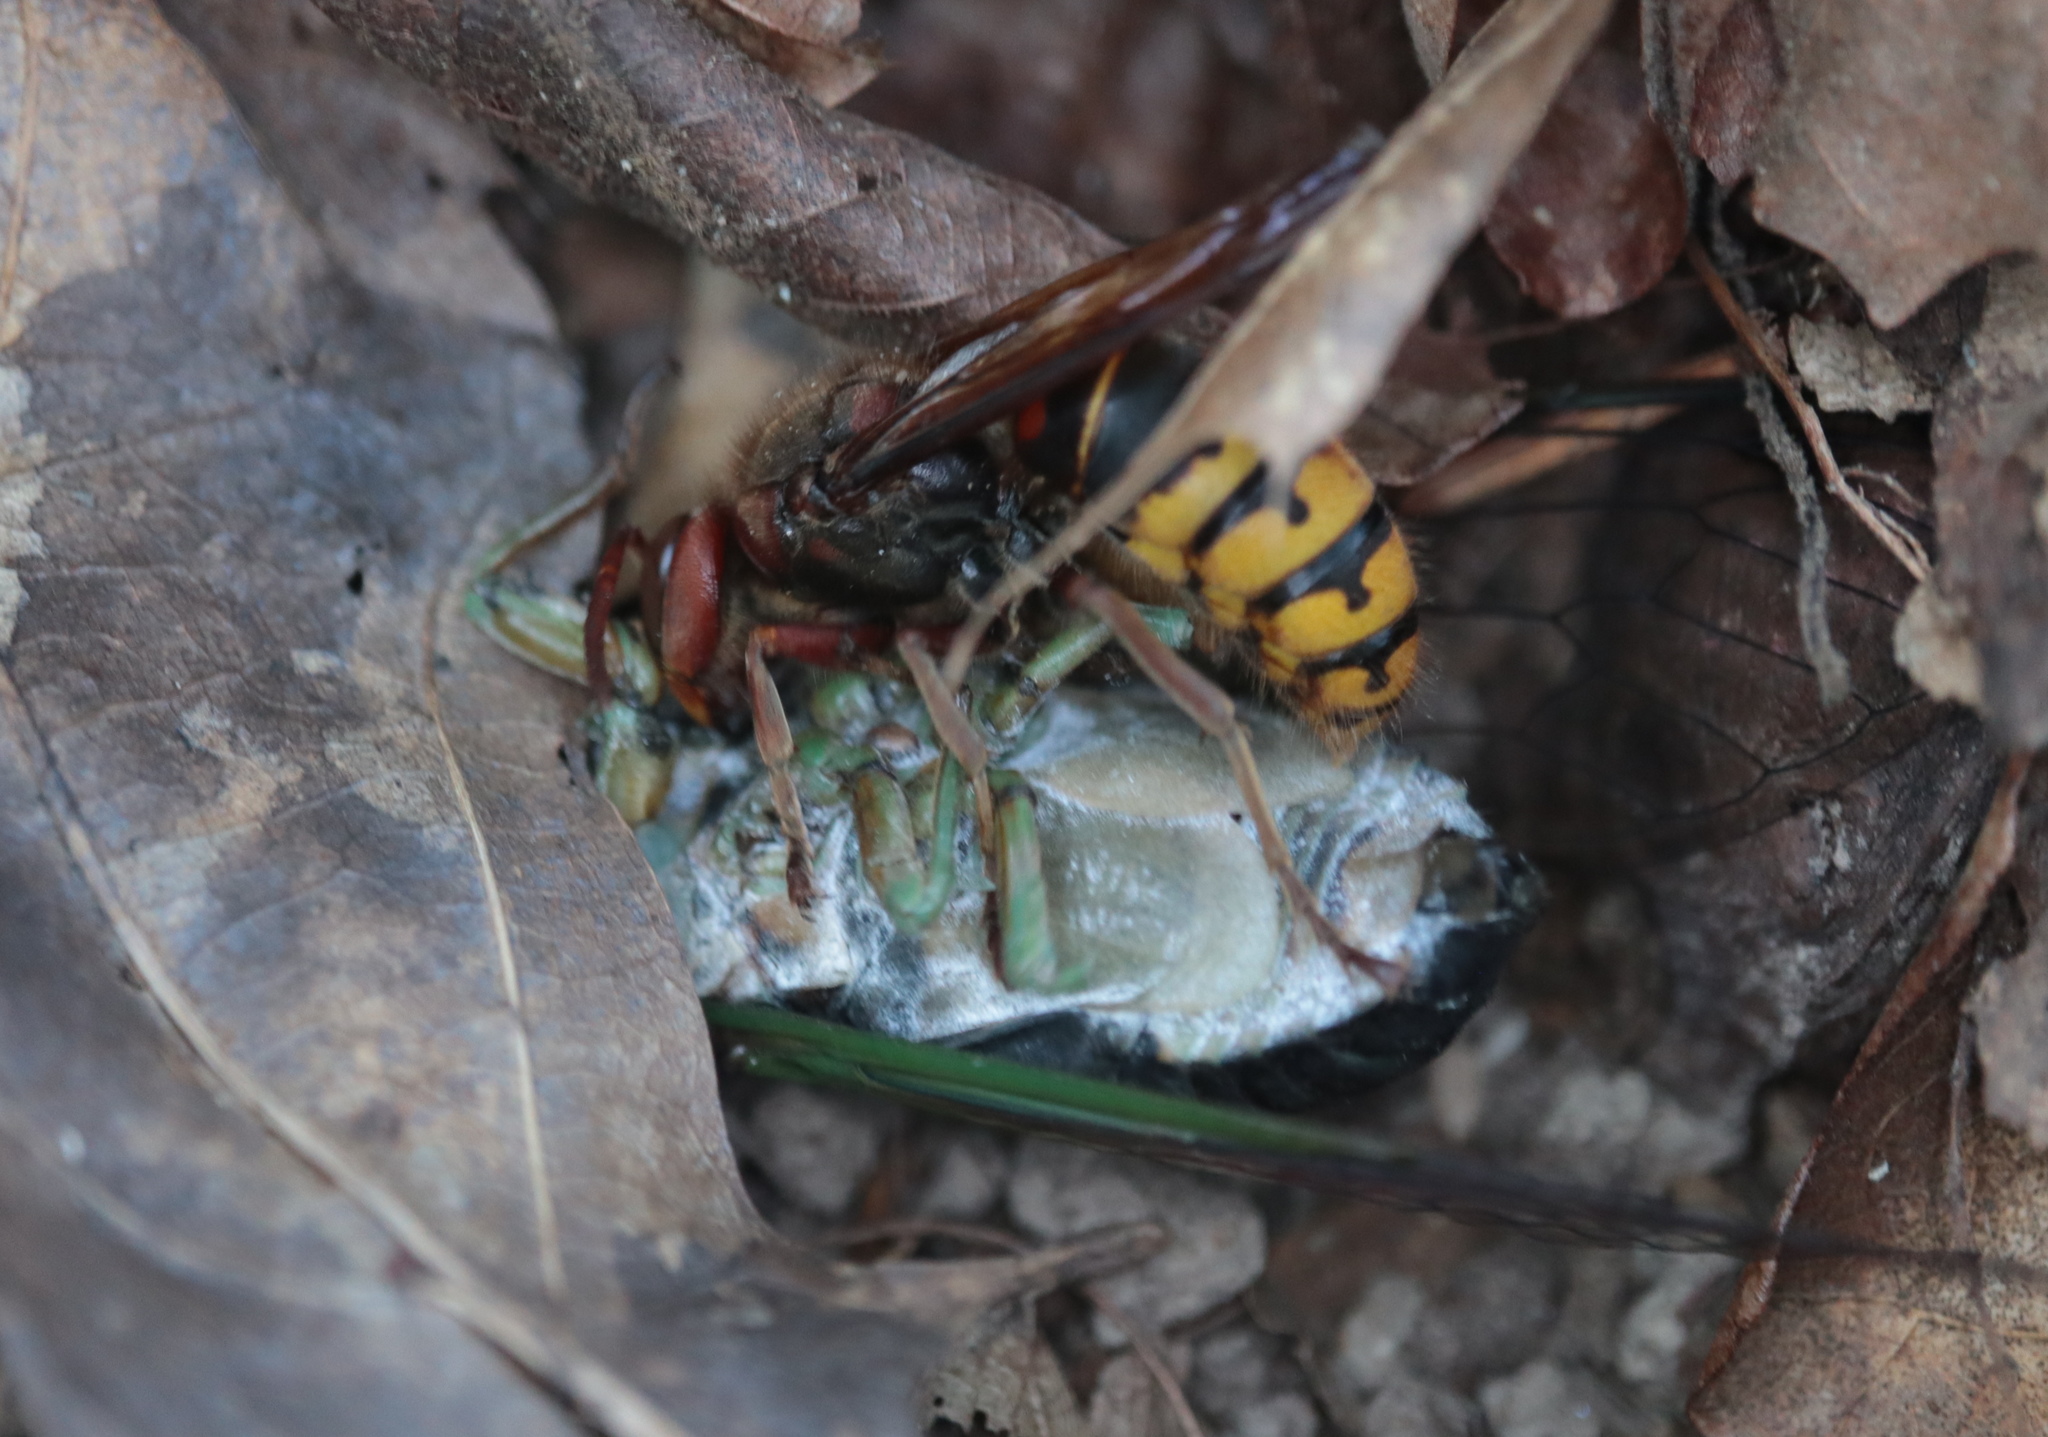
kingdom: Animalia
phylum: Arthropoda
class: Insecta
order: Hymenoptera
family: Vespidae
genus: Vespa
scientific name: Vespa crabro
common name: Hornet
